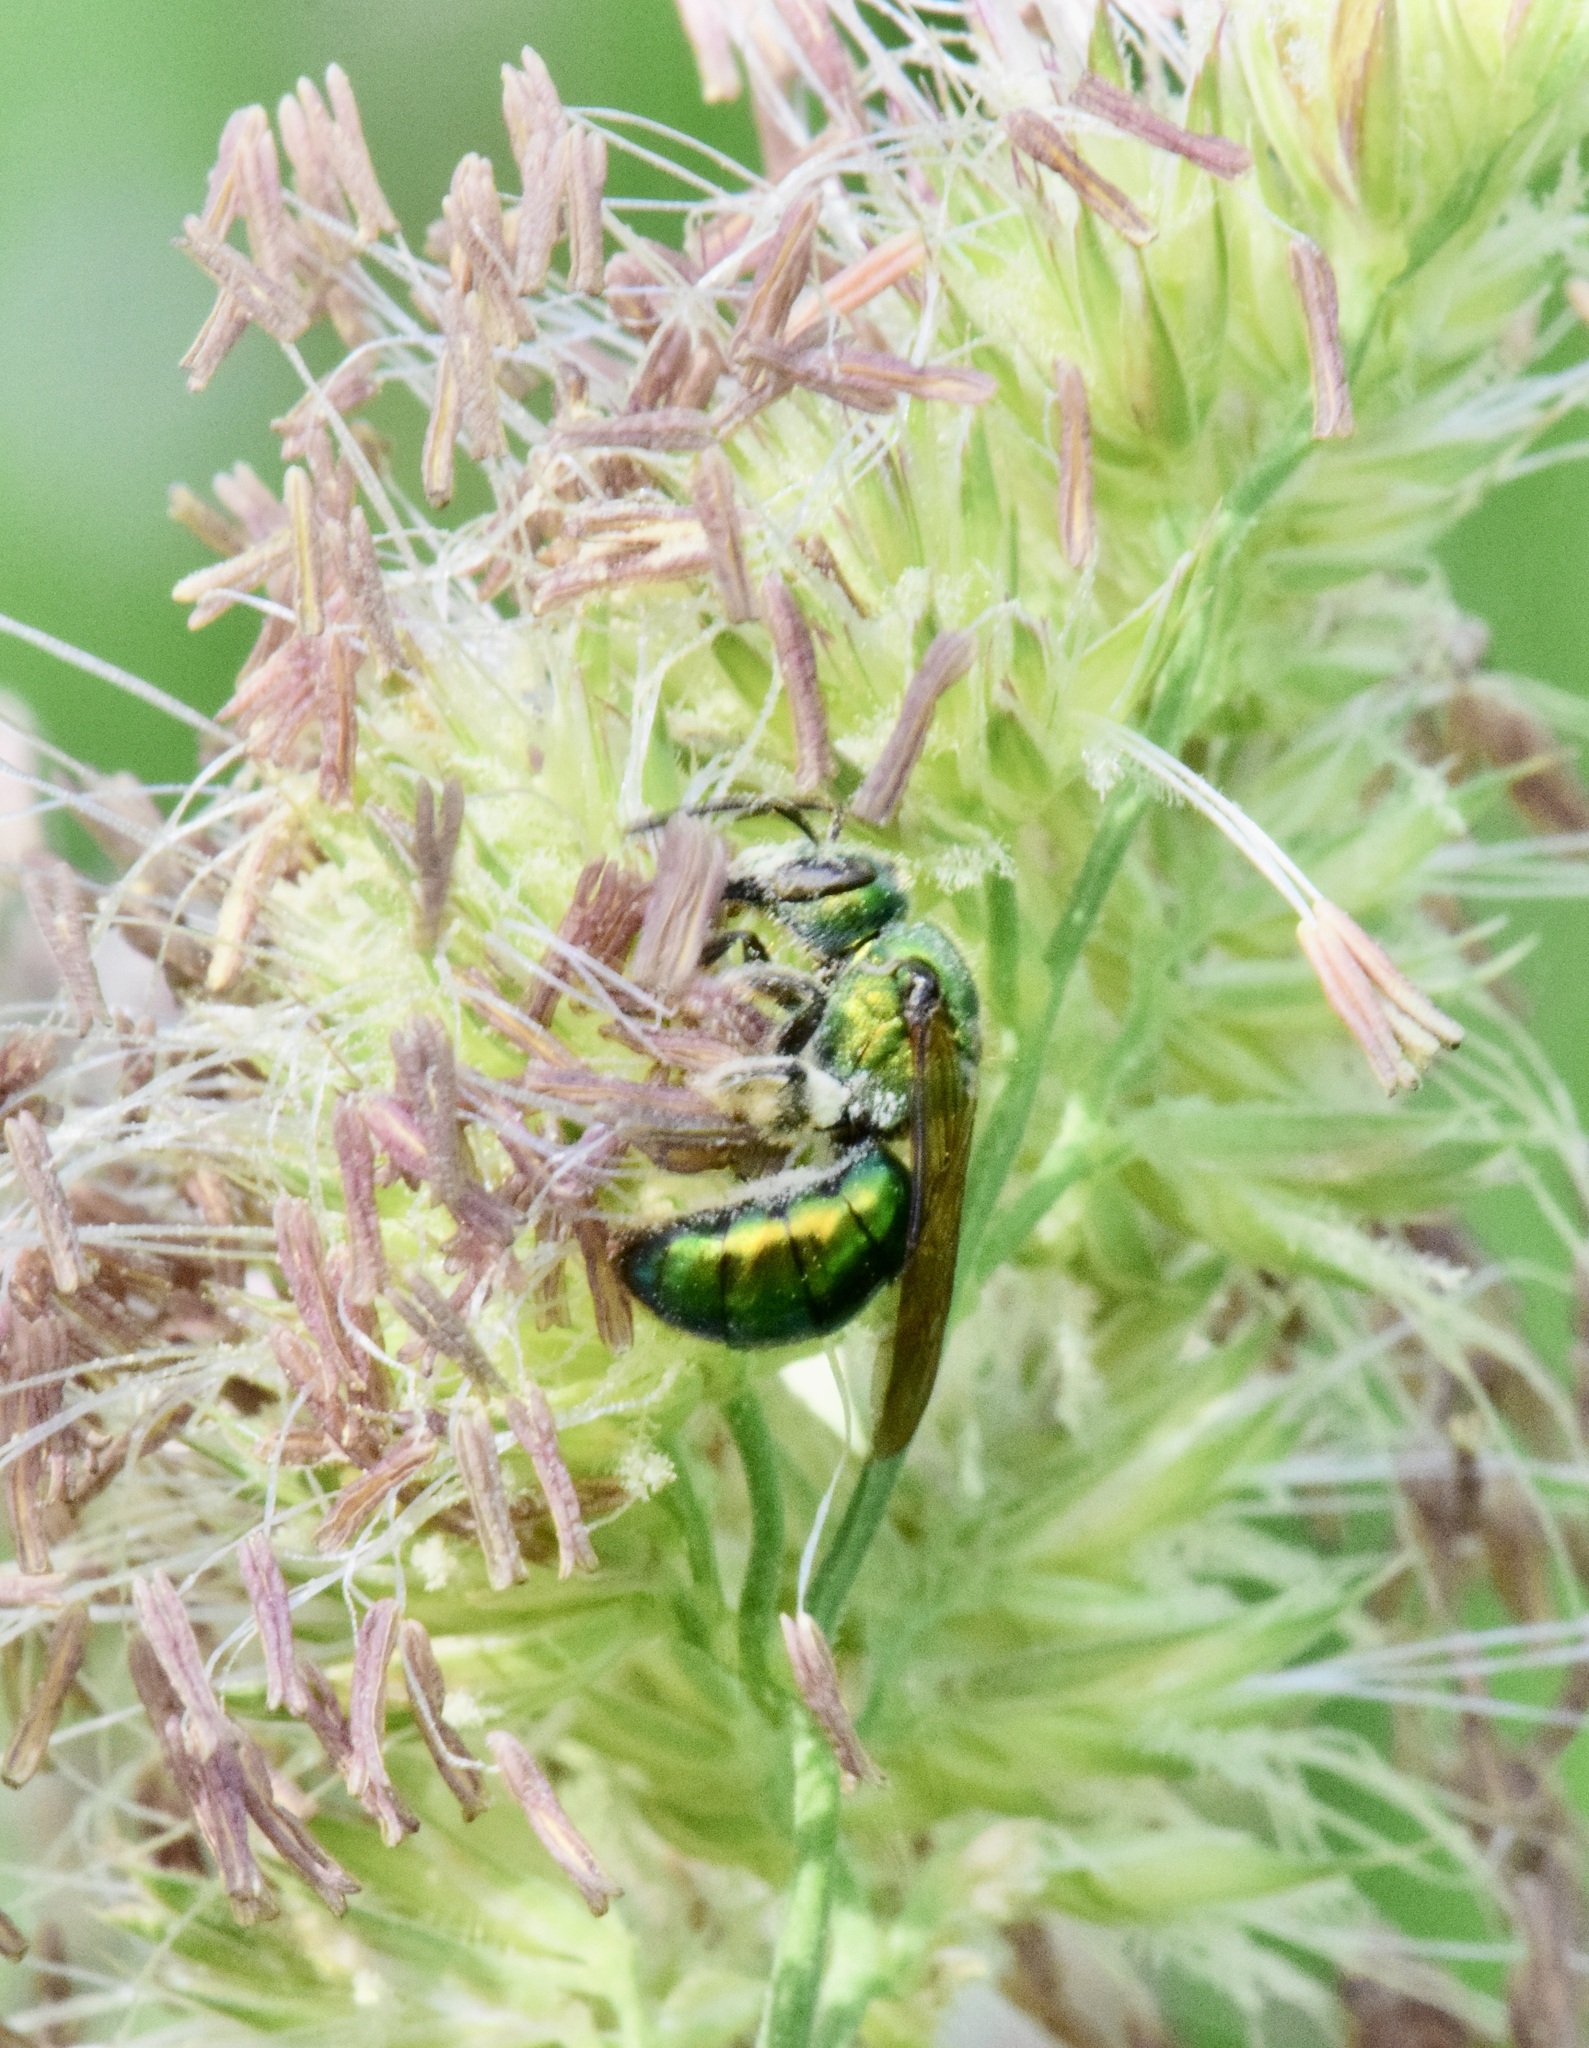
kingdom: Animalia
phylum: Arthropoda
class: Insecta
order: Hymenoptera
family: Halictidae
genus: Augochlora
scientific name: Augochlora pura
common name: Pure green sweat bee
